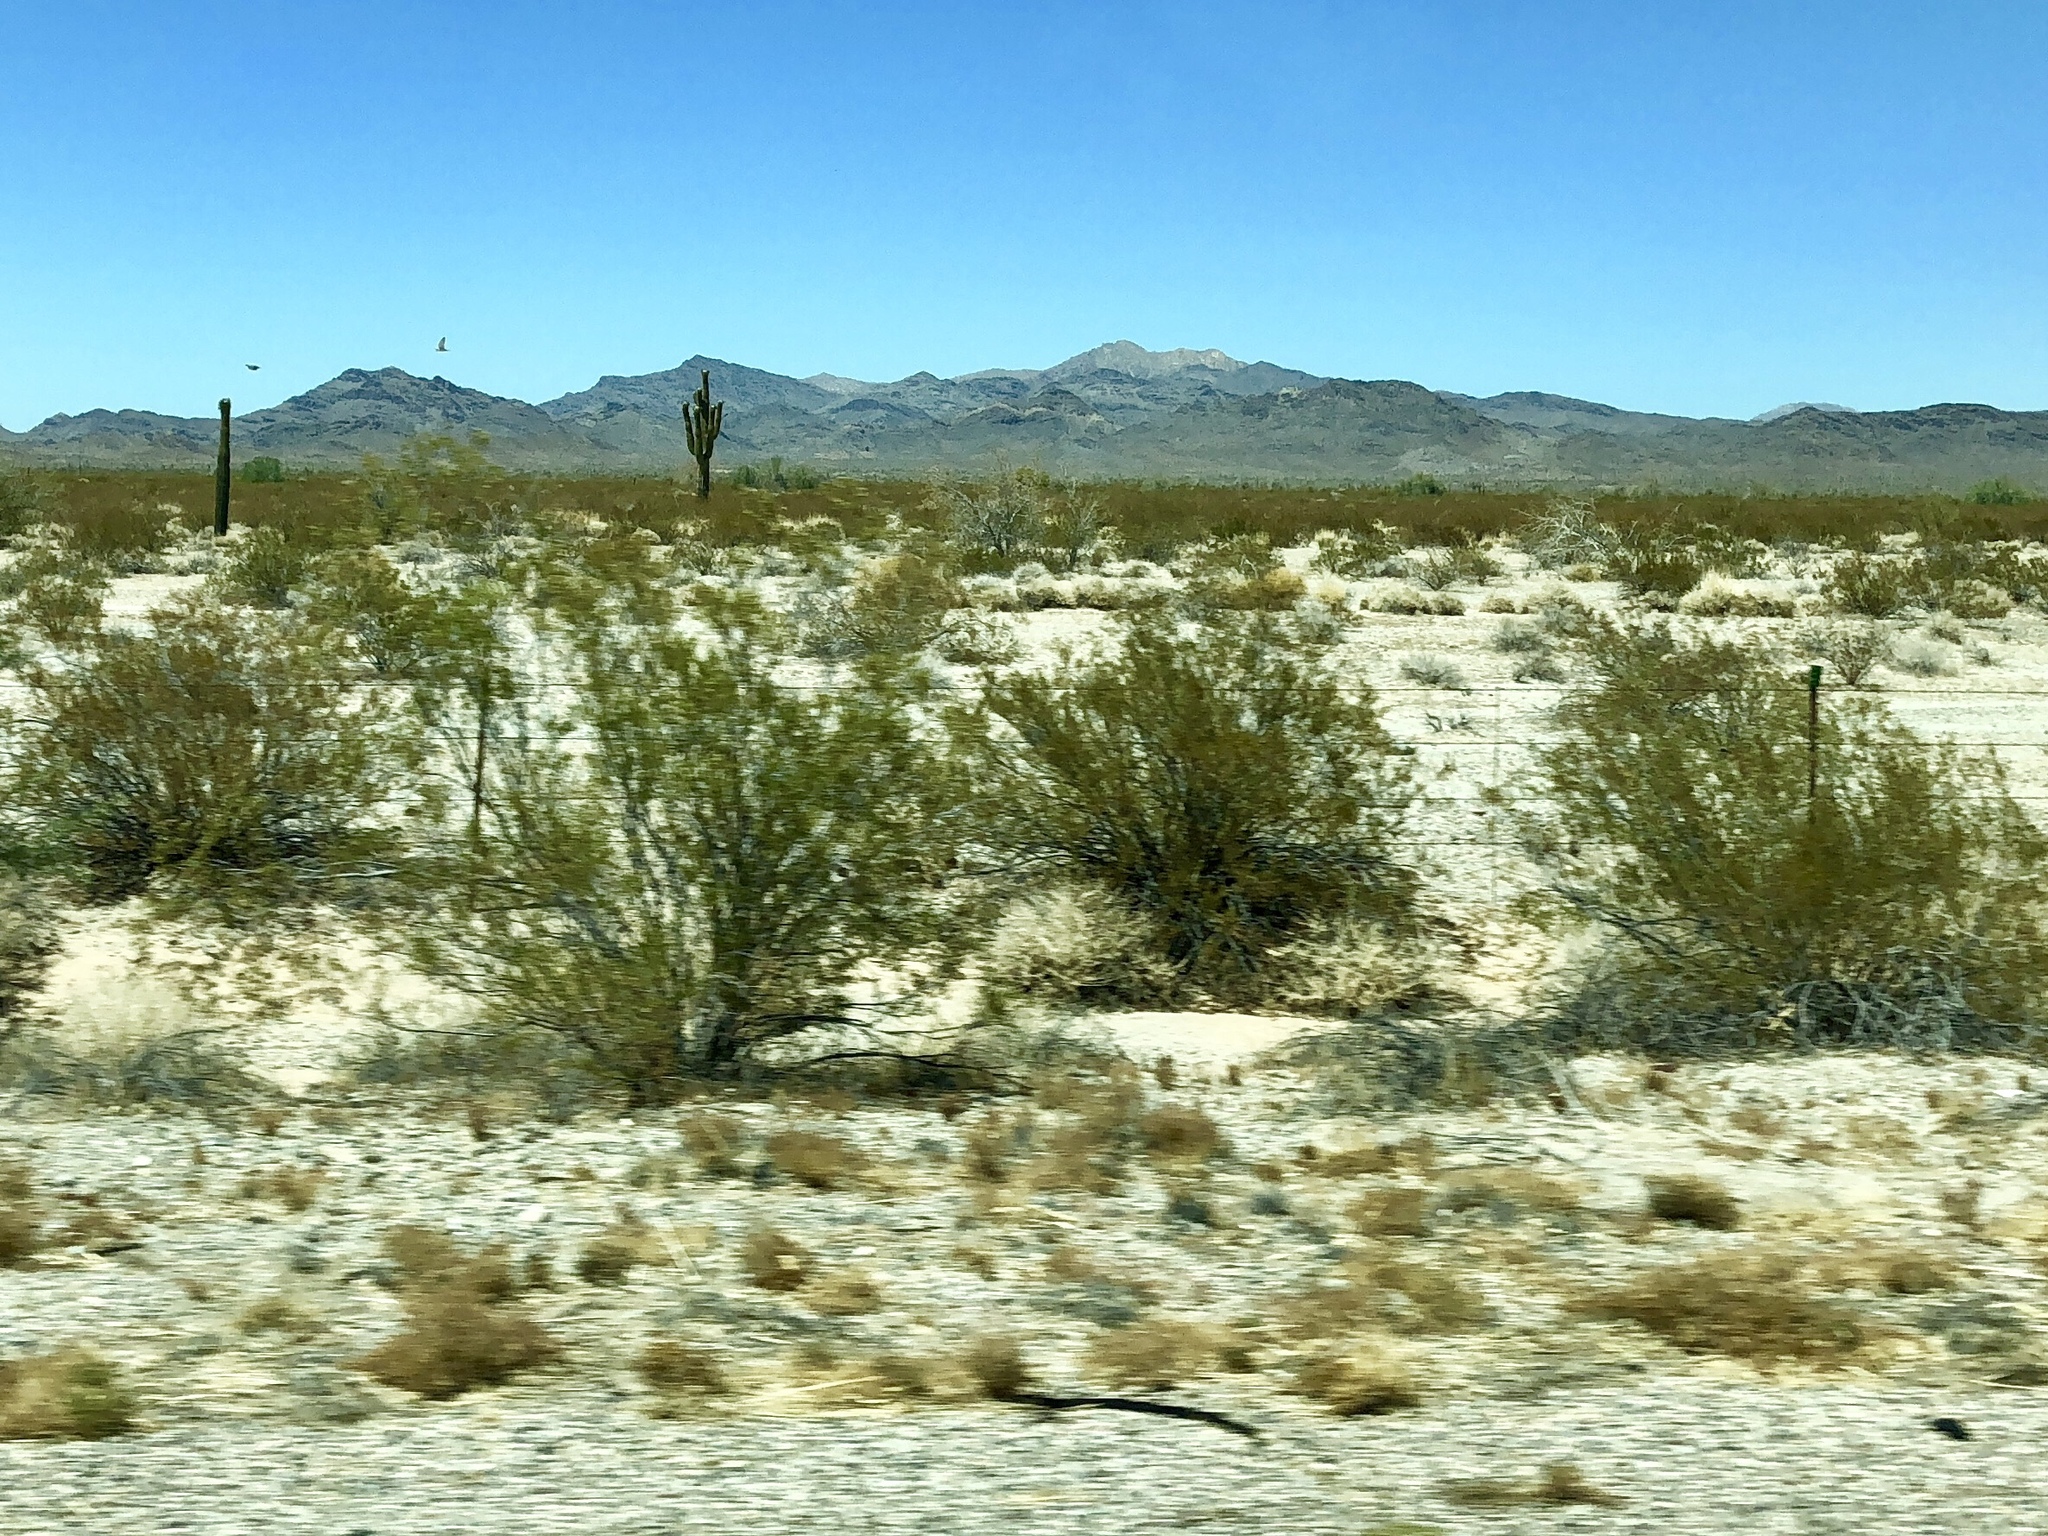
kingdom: Plantae
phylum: Tracheophyta
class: Magnoliopsida
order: Zygophyllales
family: Zygophyllaceae
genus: Larrea
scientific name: Larrea tridentata
